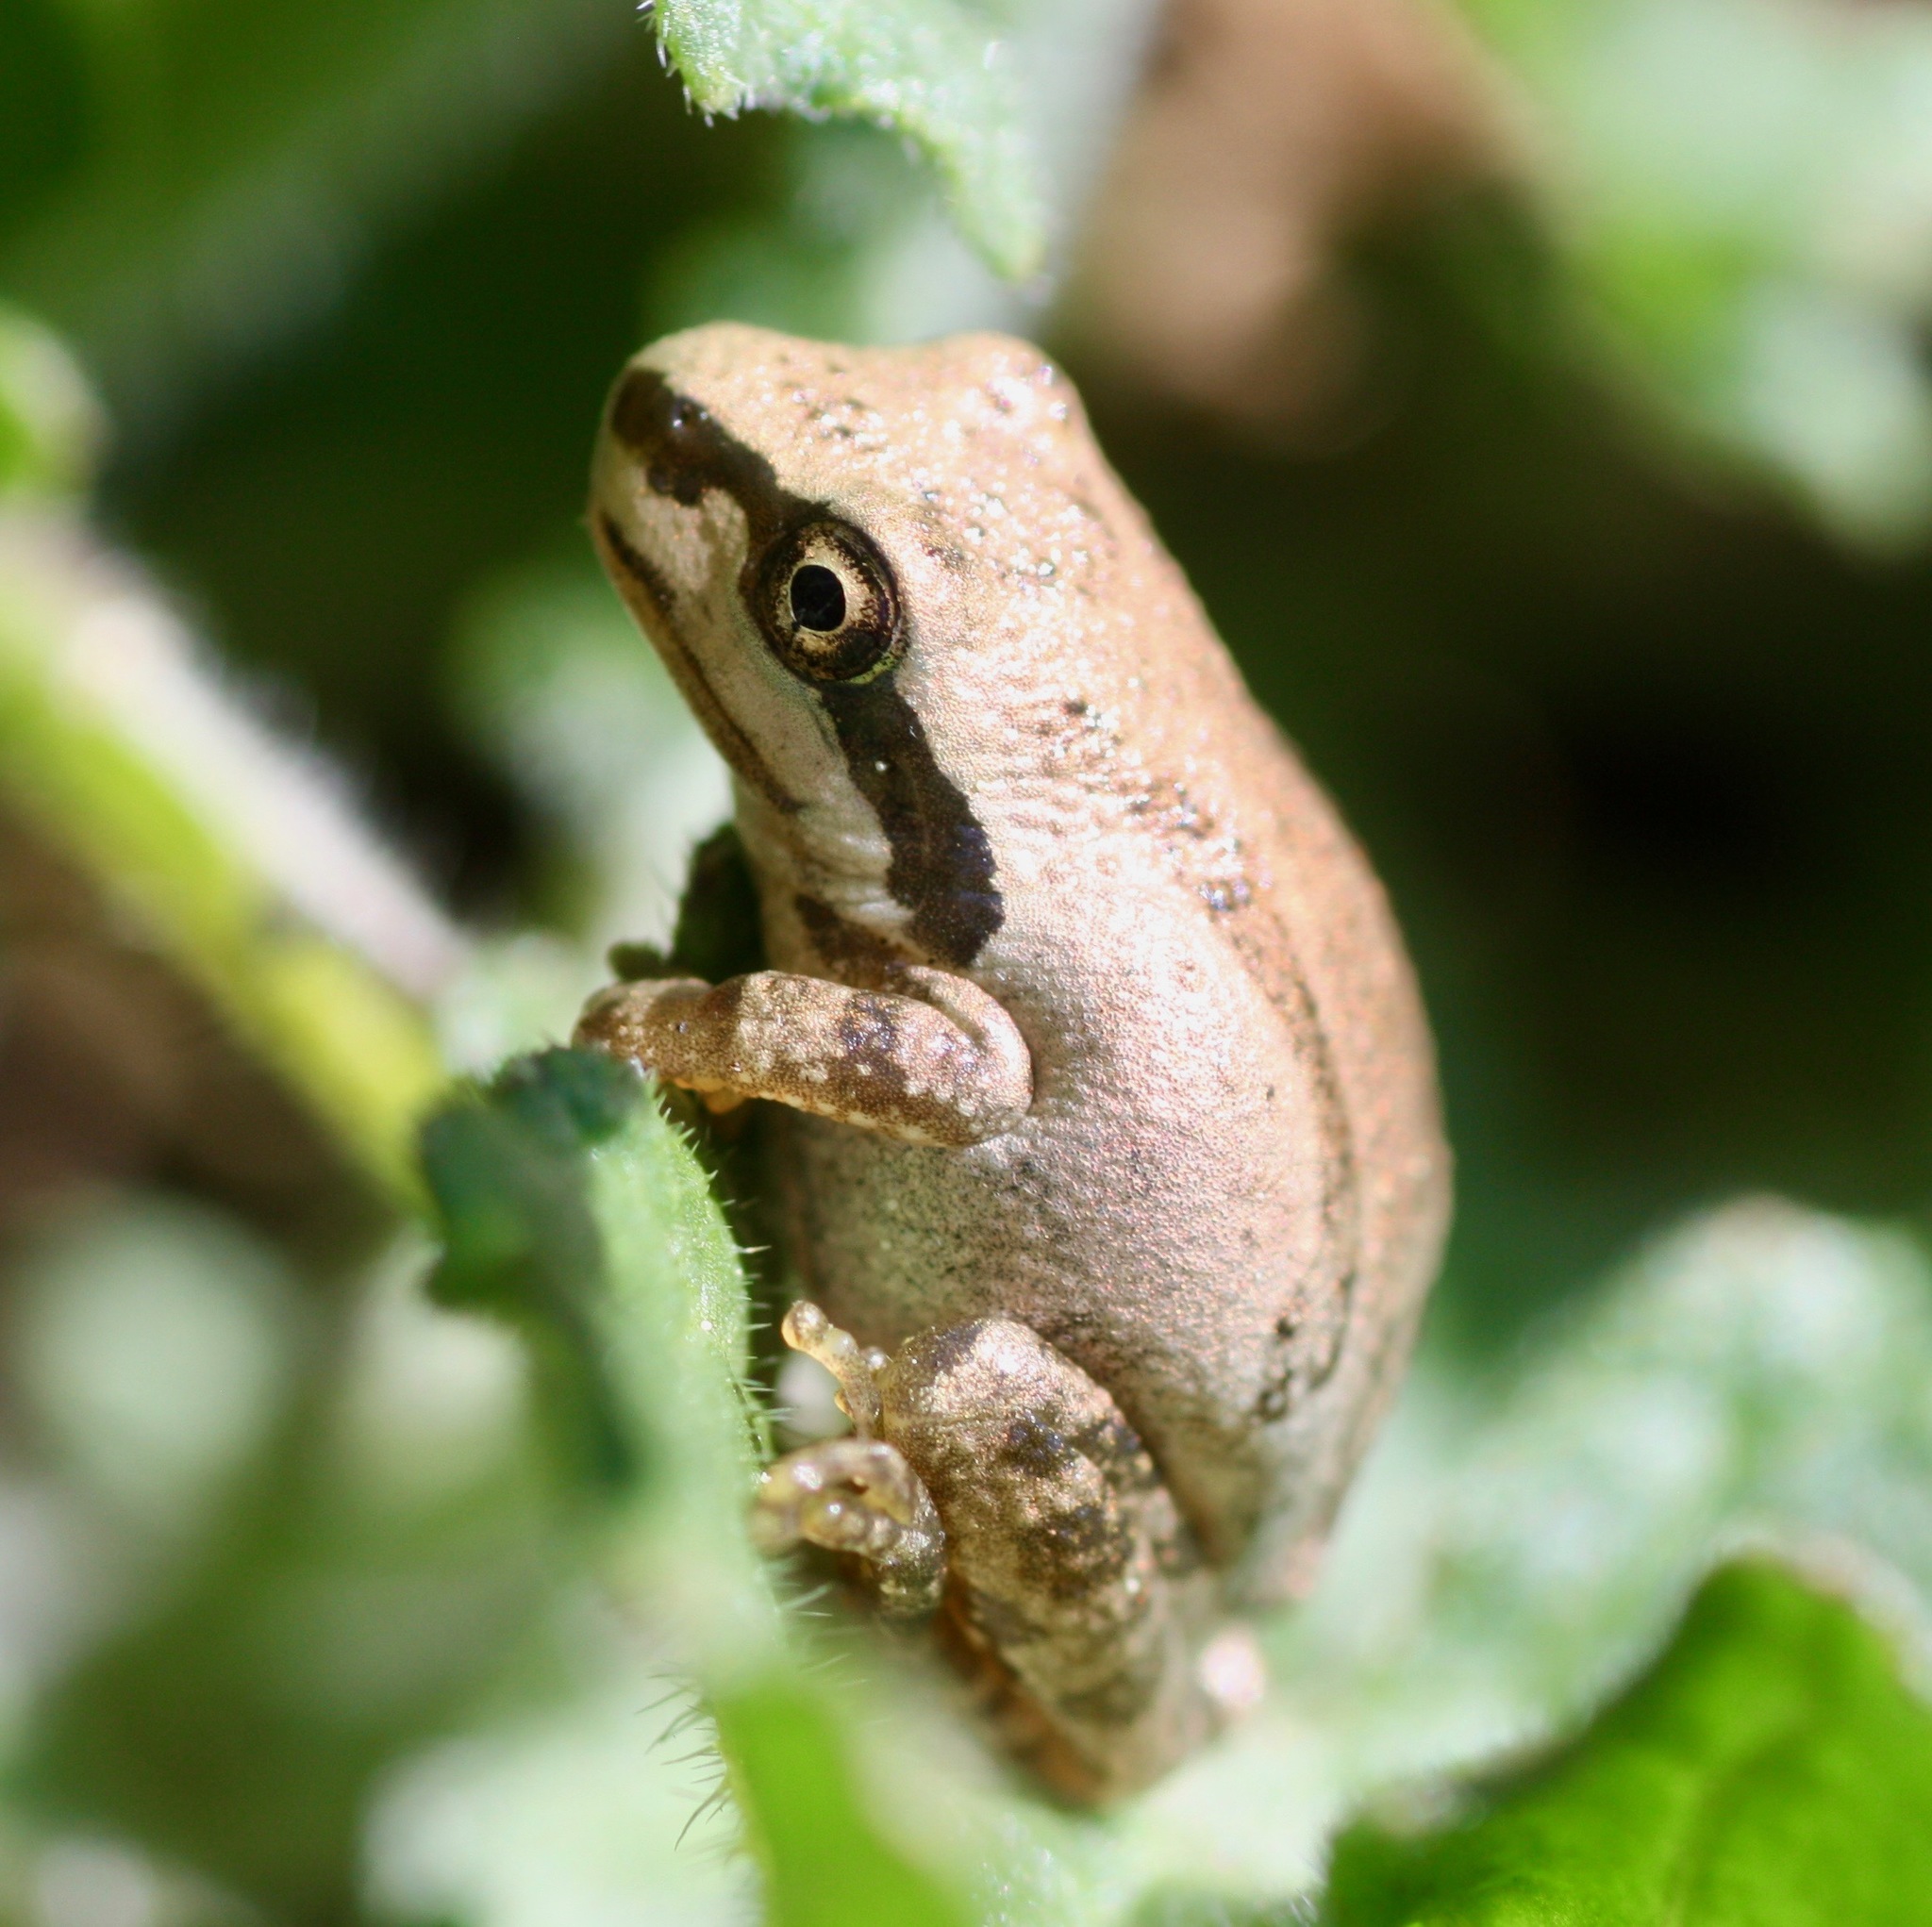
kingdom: Animalia
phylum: Chordata
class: Amphibia
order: Anura
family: Hylidae
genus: Pseudacris
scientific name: Pseudacris regilla
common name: Pacific chorus frog
